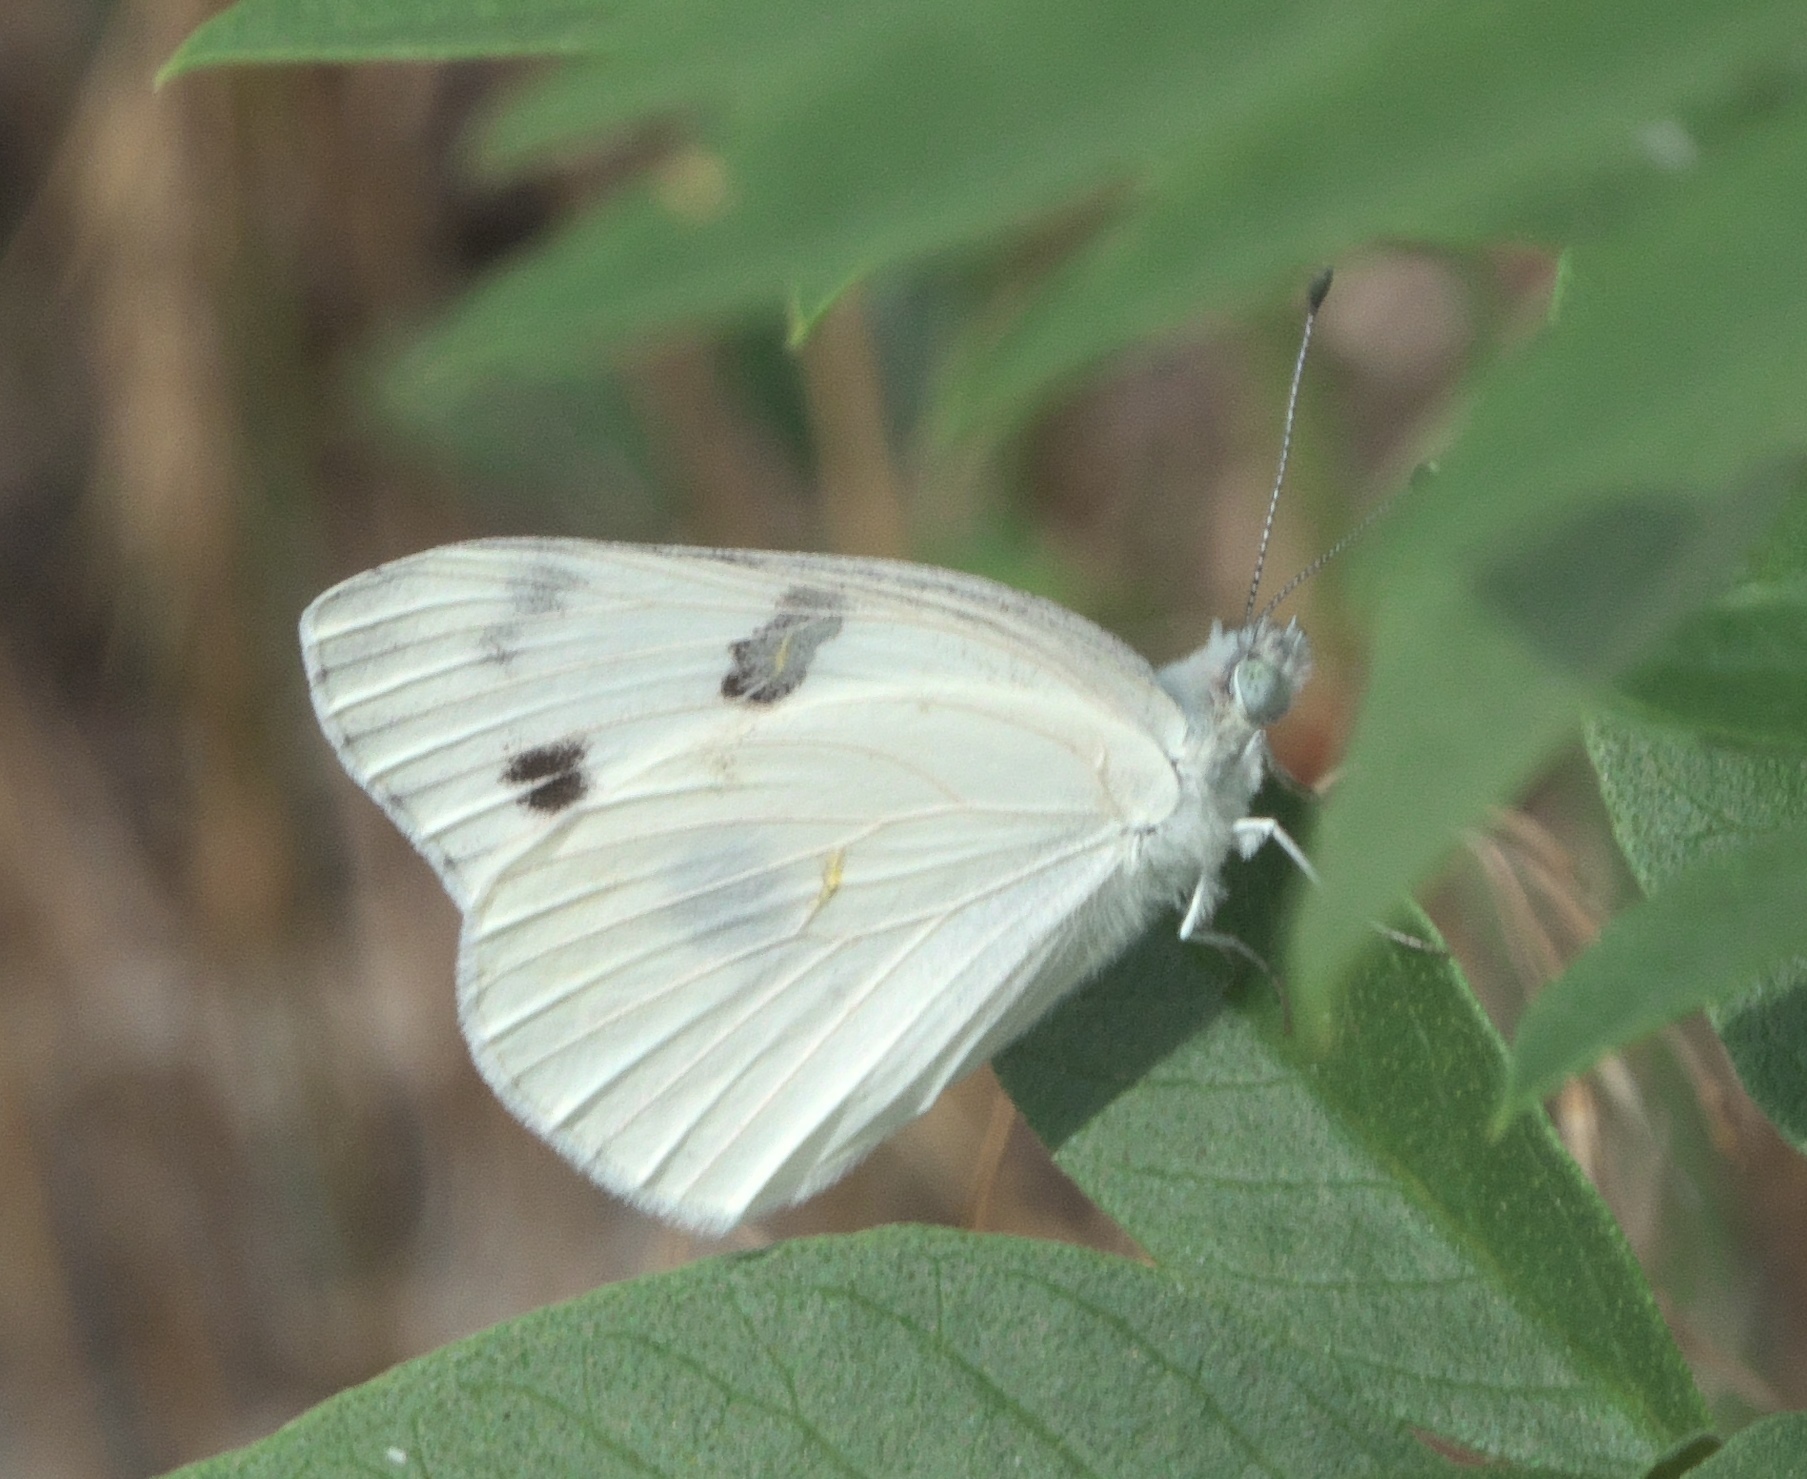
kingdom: Animalia
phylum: Arthropoda
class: Insecta
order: Lepidoptera
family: Pieridae
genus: Pontia
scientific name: Pontia protodice
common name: Checkered white
